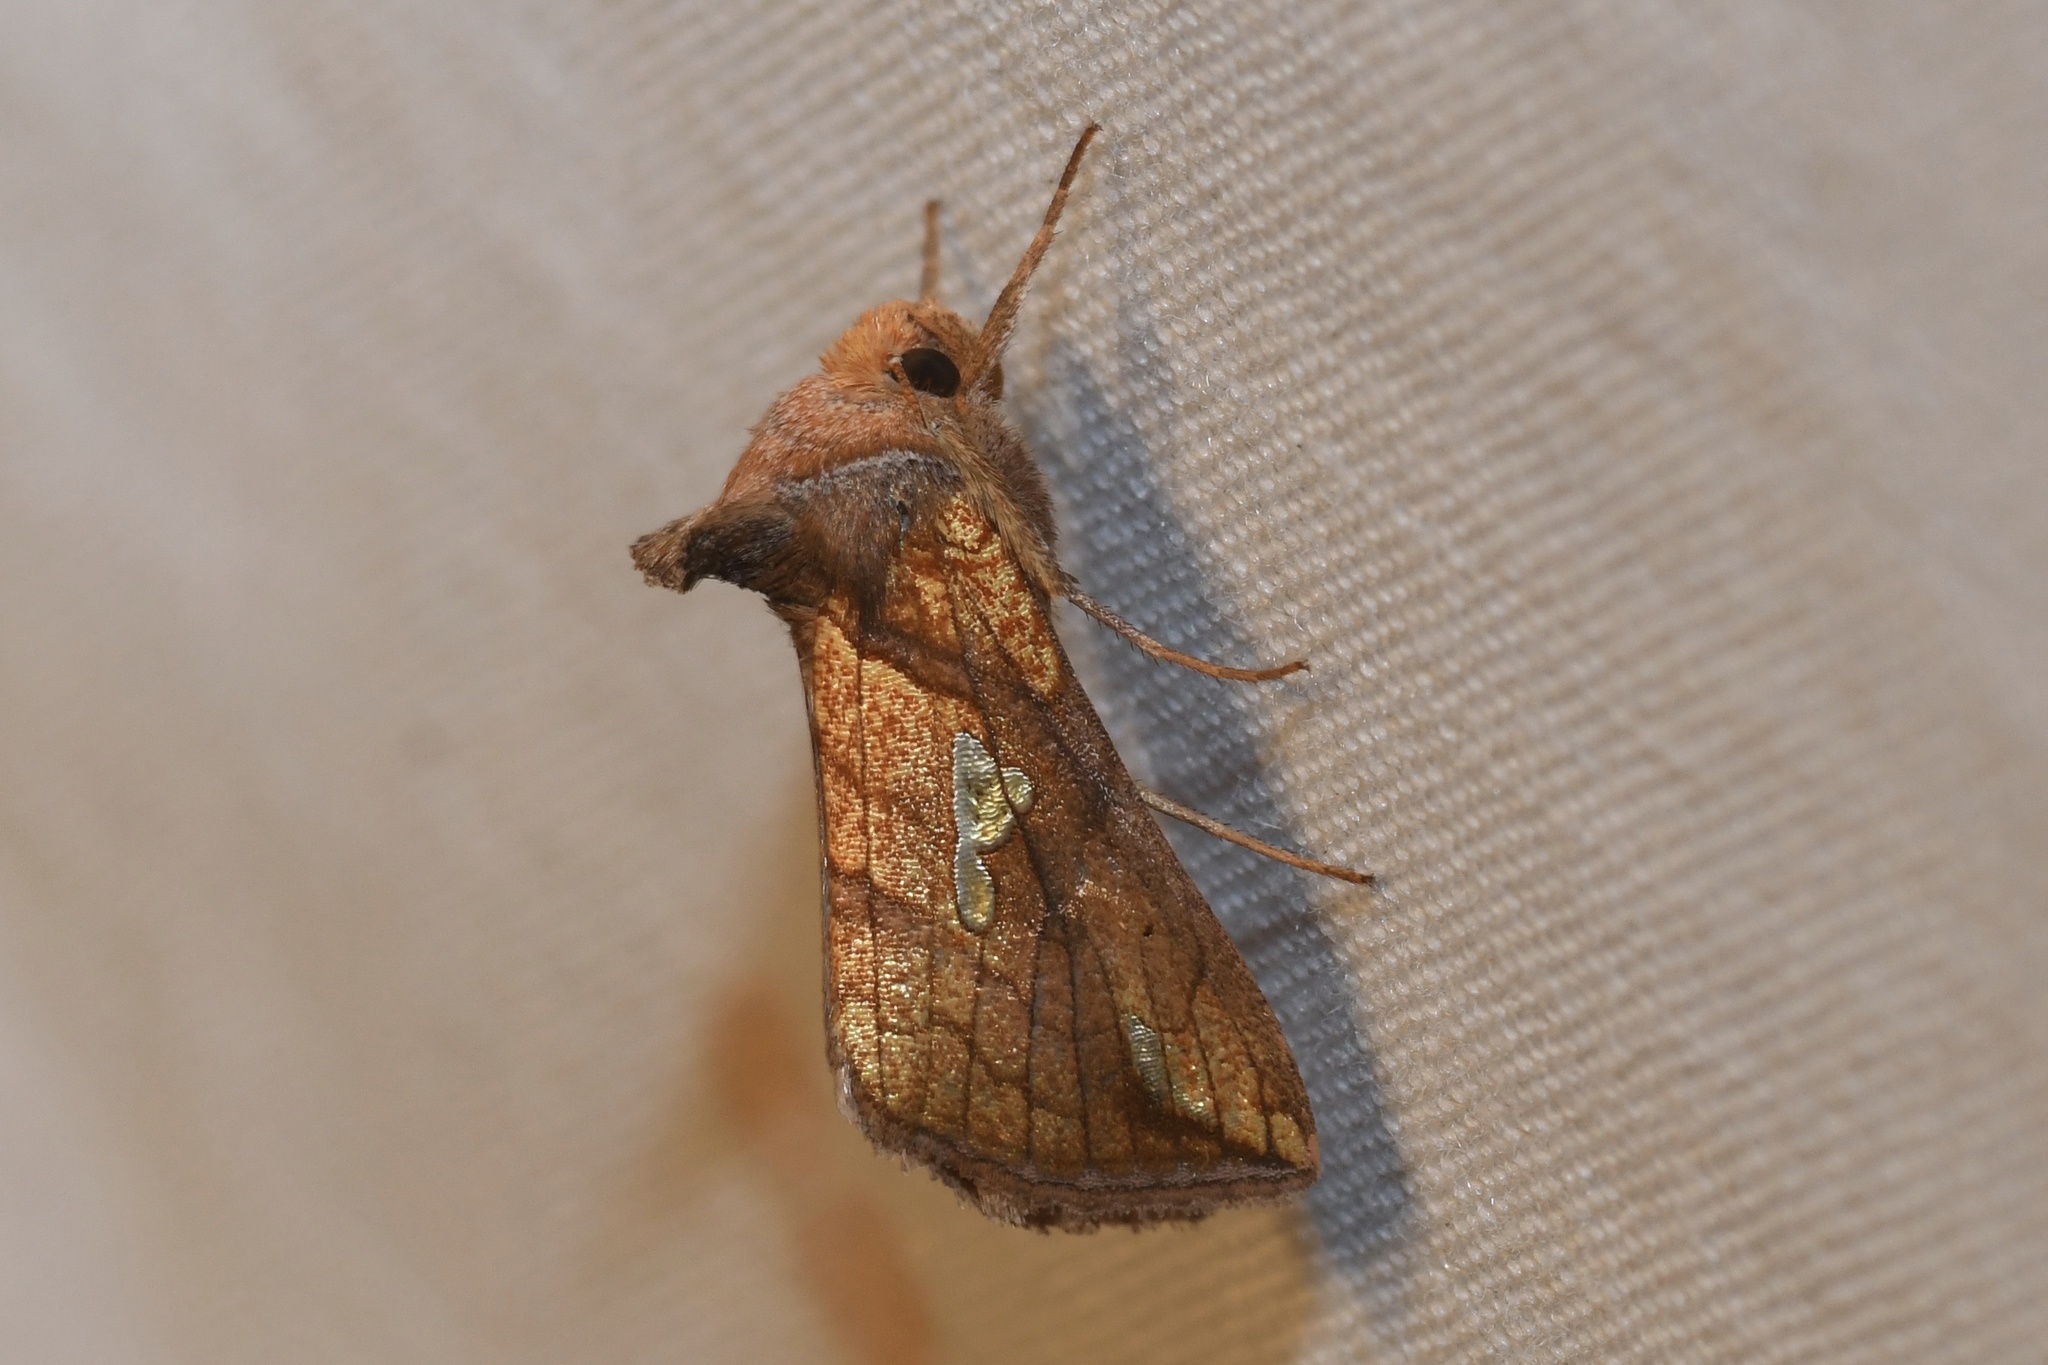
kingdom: Animalia
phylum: Arthropoda
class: Insecta
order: Lepidoptera
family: Noctuidae
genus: Plusia
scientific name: Plusia putnami
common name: Lempke's gold spot
